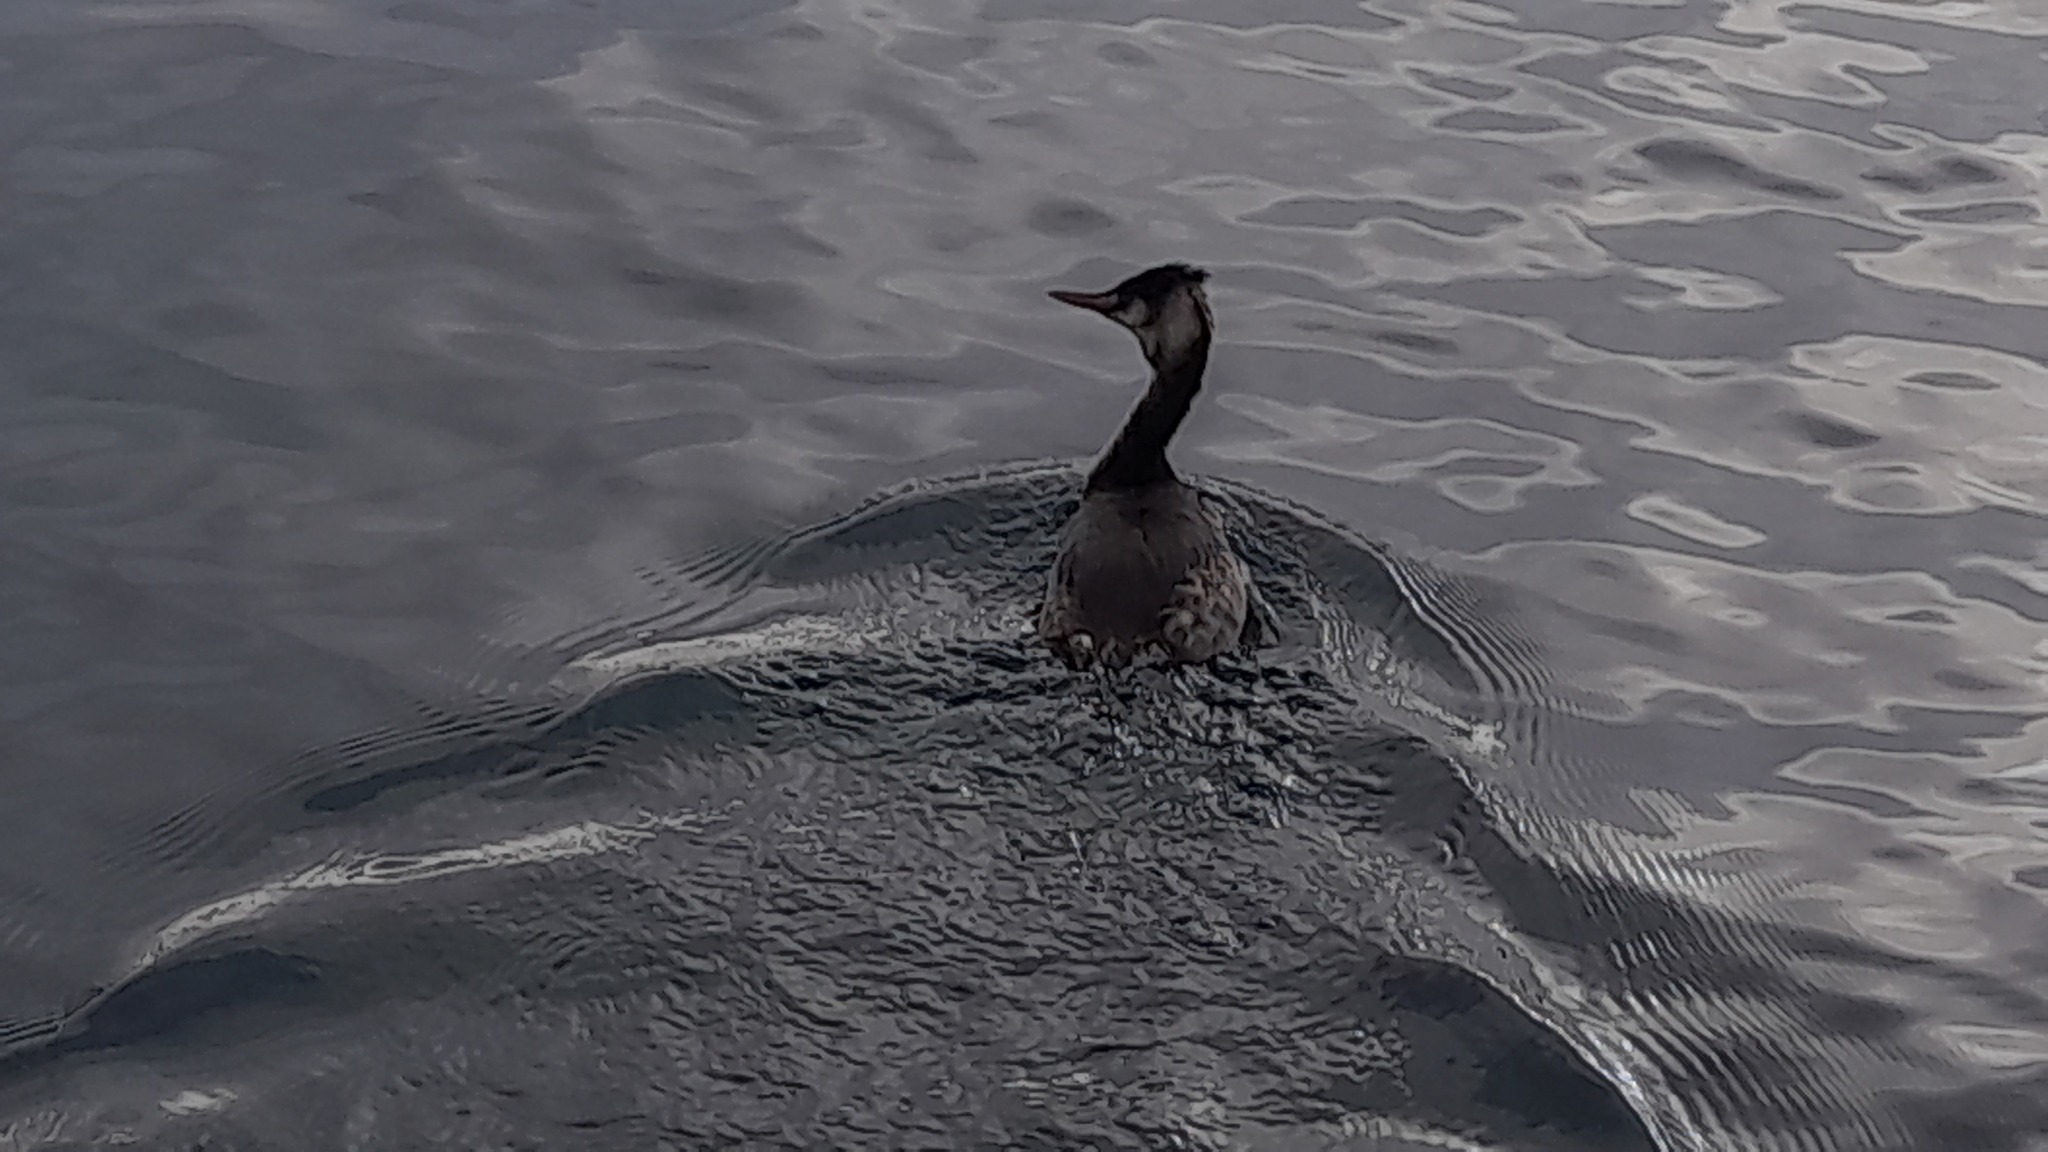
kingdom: Animalia
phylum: Chordata
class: Aves
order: Podicipediformes
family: Podicipedidae
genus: Podiceps
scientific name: Podiceps cristatus
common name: Great crested grebe
